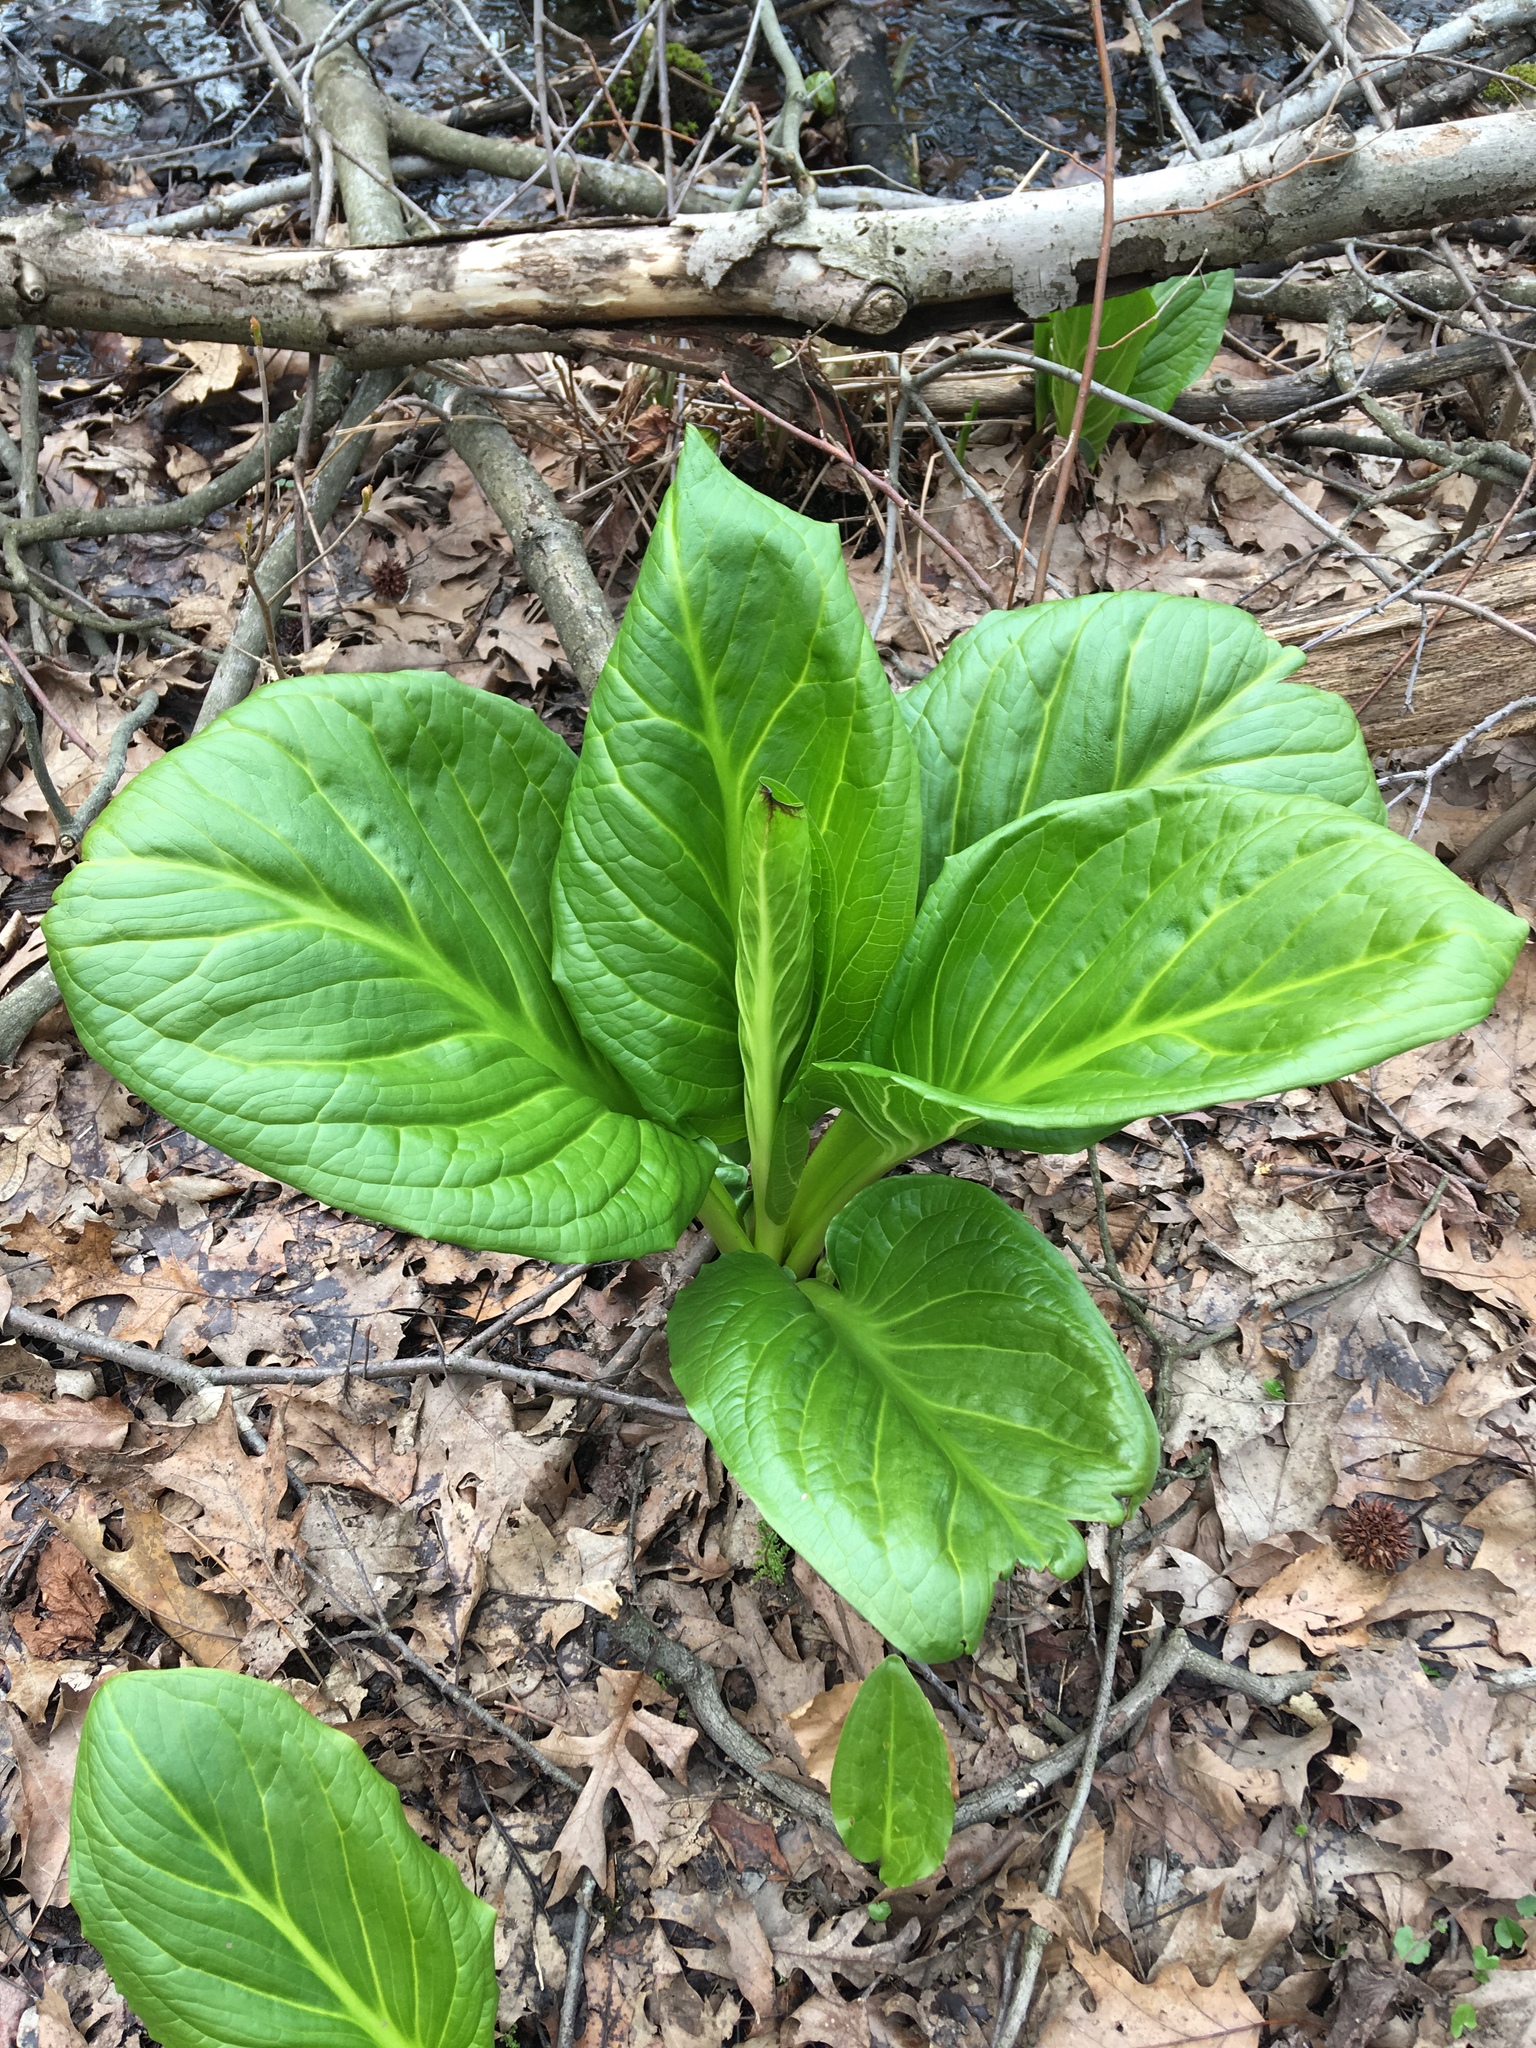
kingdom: Plantae
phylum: Tracheophyta
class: Liliopsida
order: Alismatales
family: Araceae
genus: Symplocarpus
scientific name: Symplocarpus foetidus
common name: Eastern skunk cabbage
